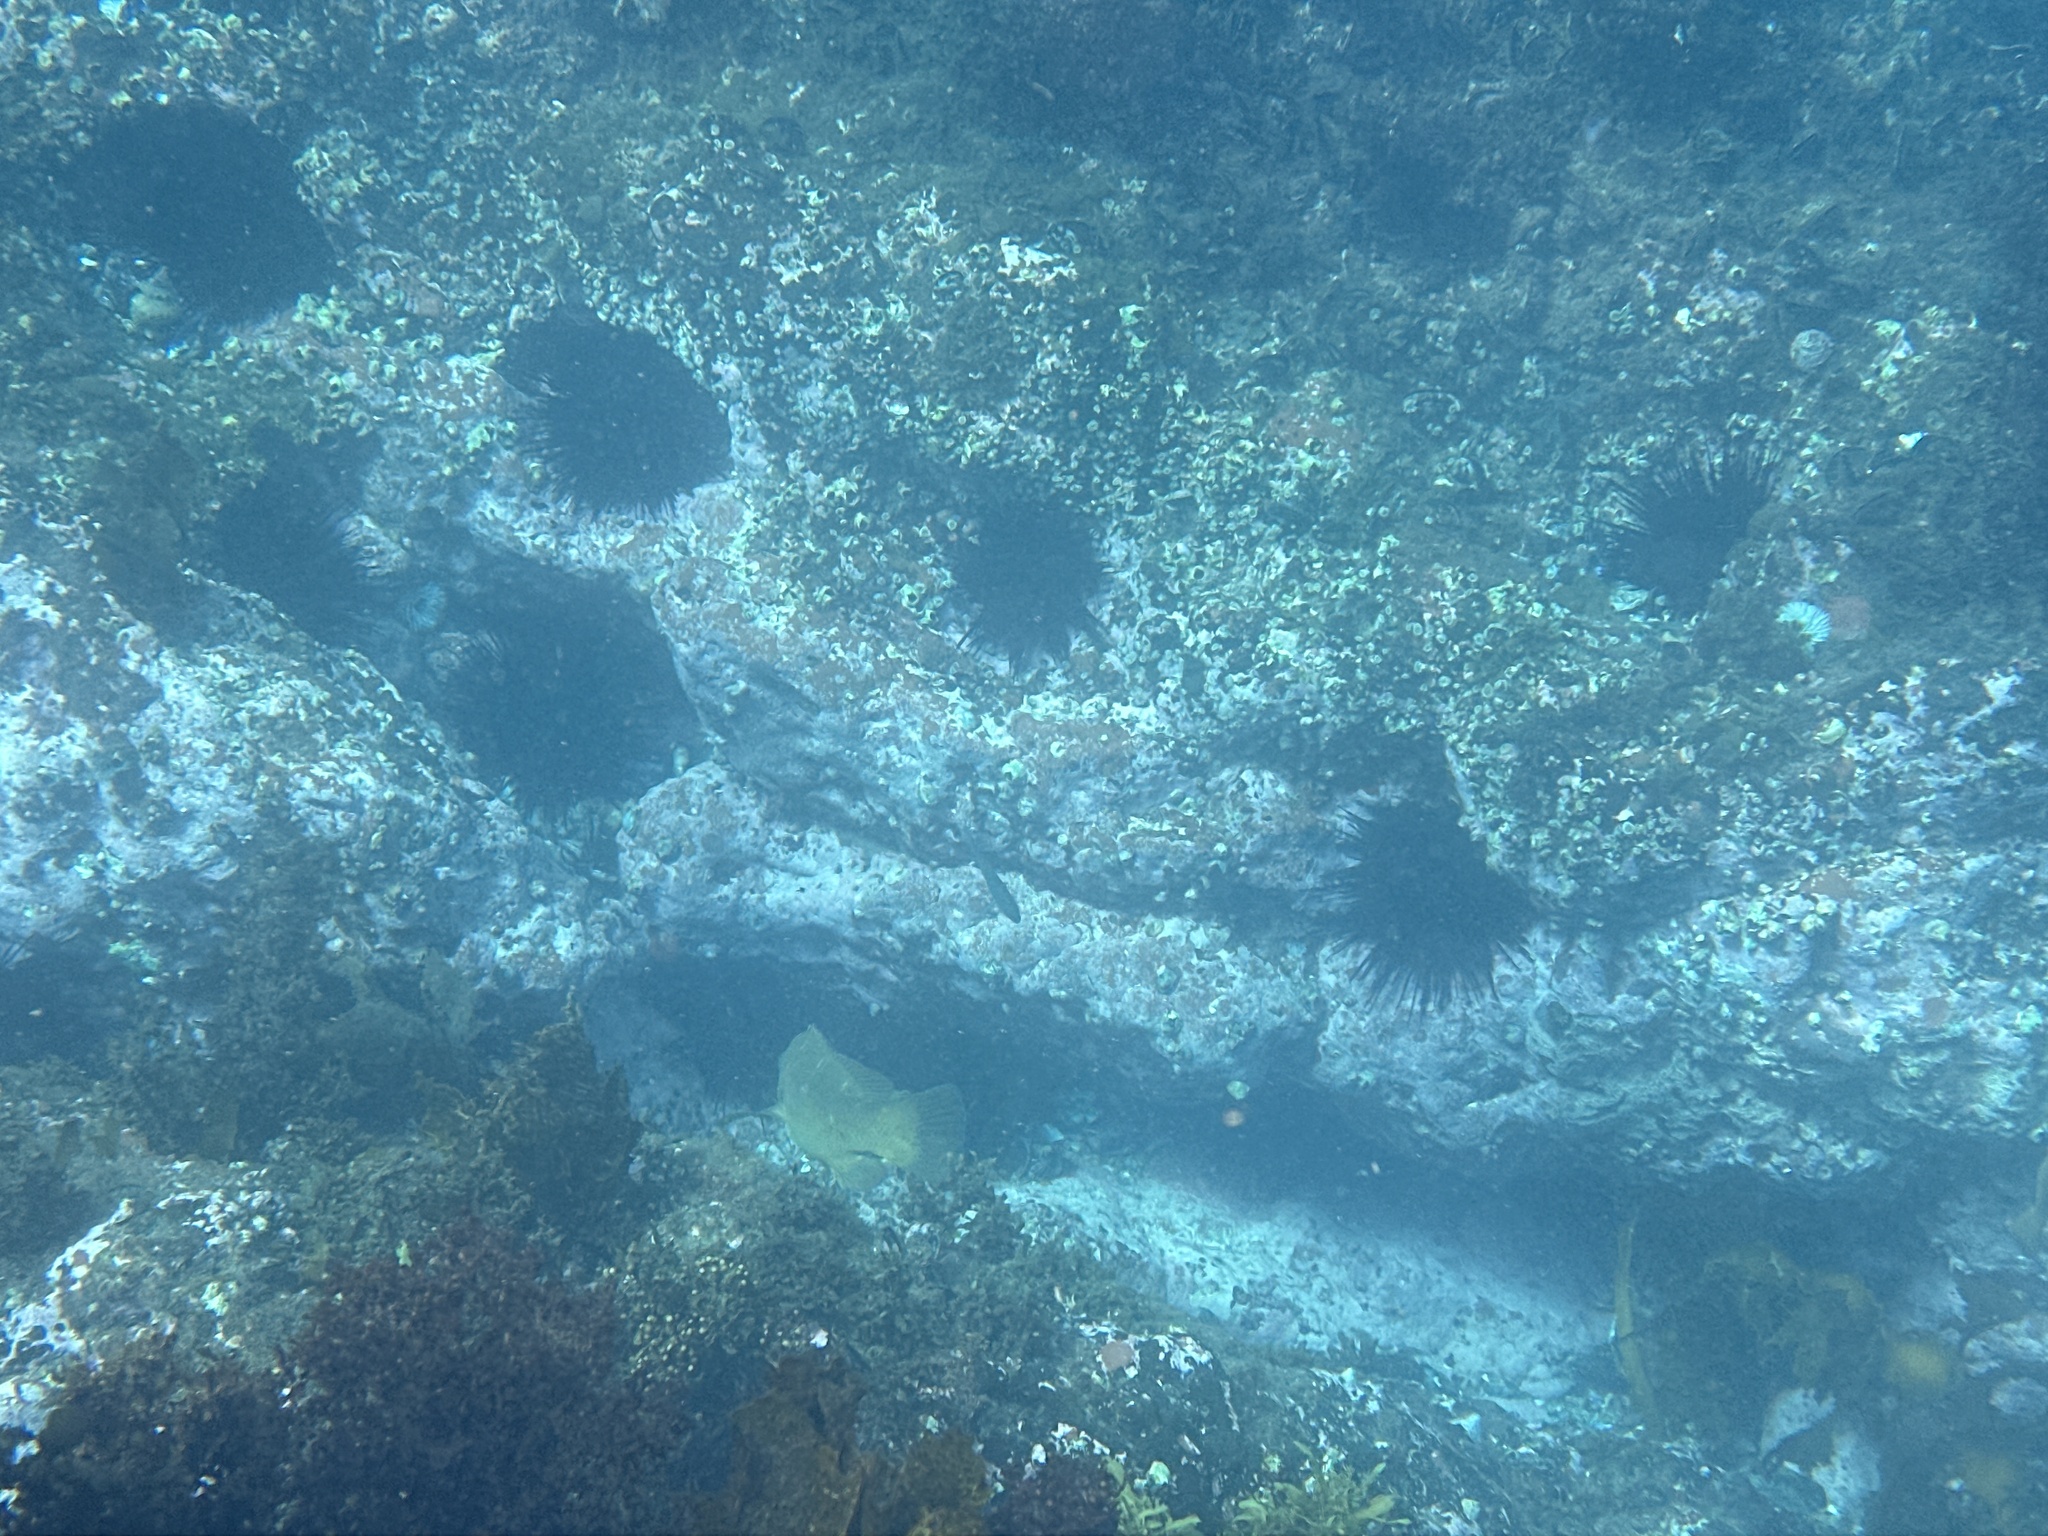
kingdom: Animalia
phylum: Echinodermata
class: Echinoidea
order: Diadematoida
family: Diadematidae
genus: Centrostephanus
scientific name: Centrostephanus rodgersii
